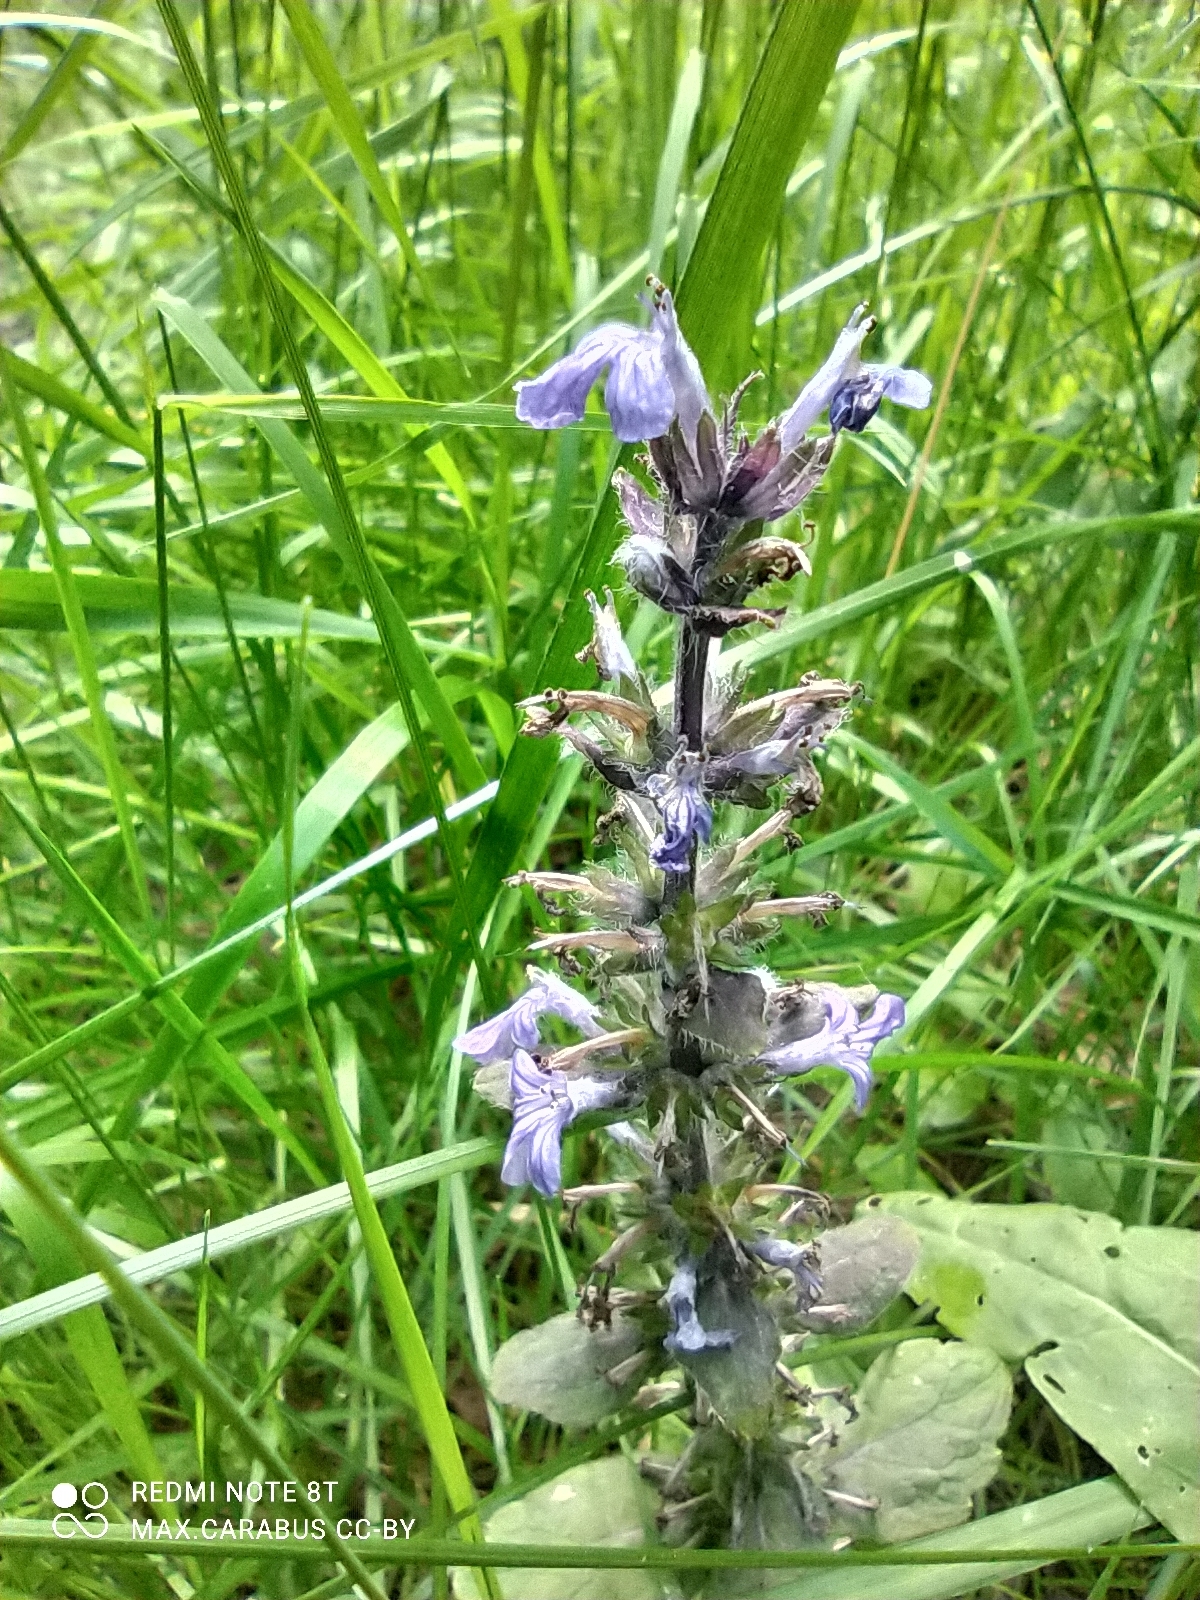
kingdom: Plantae
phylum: Tracheophyta
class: Magnoliopsida
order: Lamiales
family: Lamiaceae
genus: Ajuga
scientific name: Ajuga reptans
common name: Bugle
